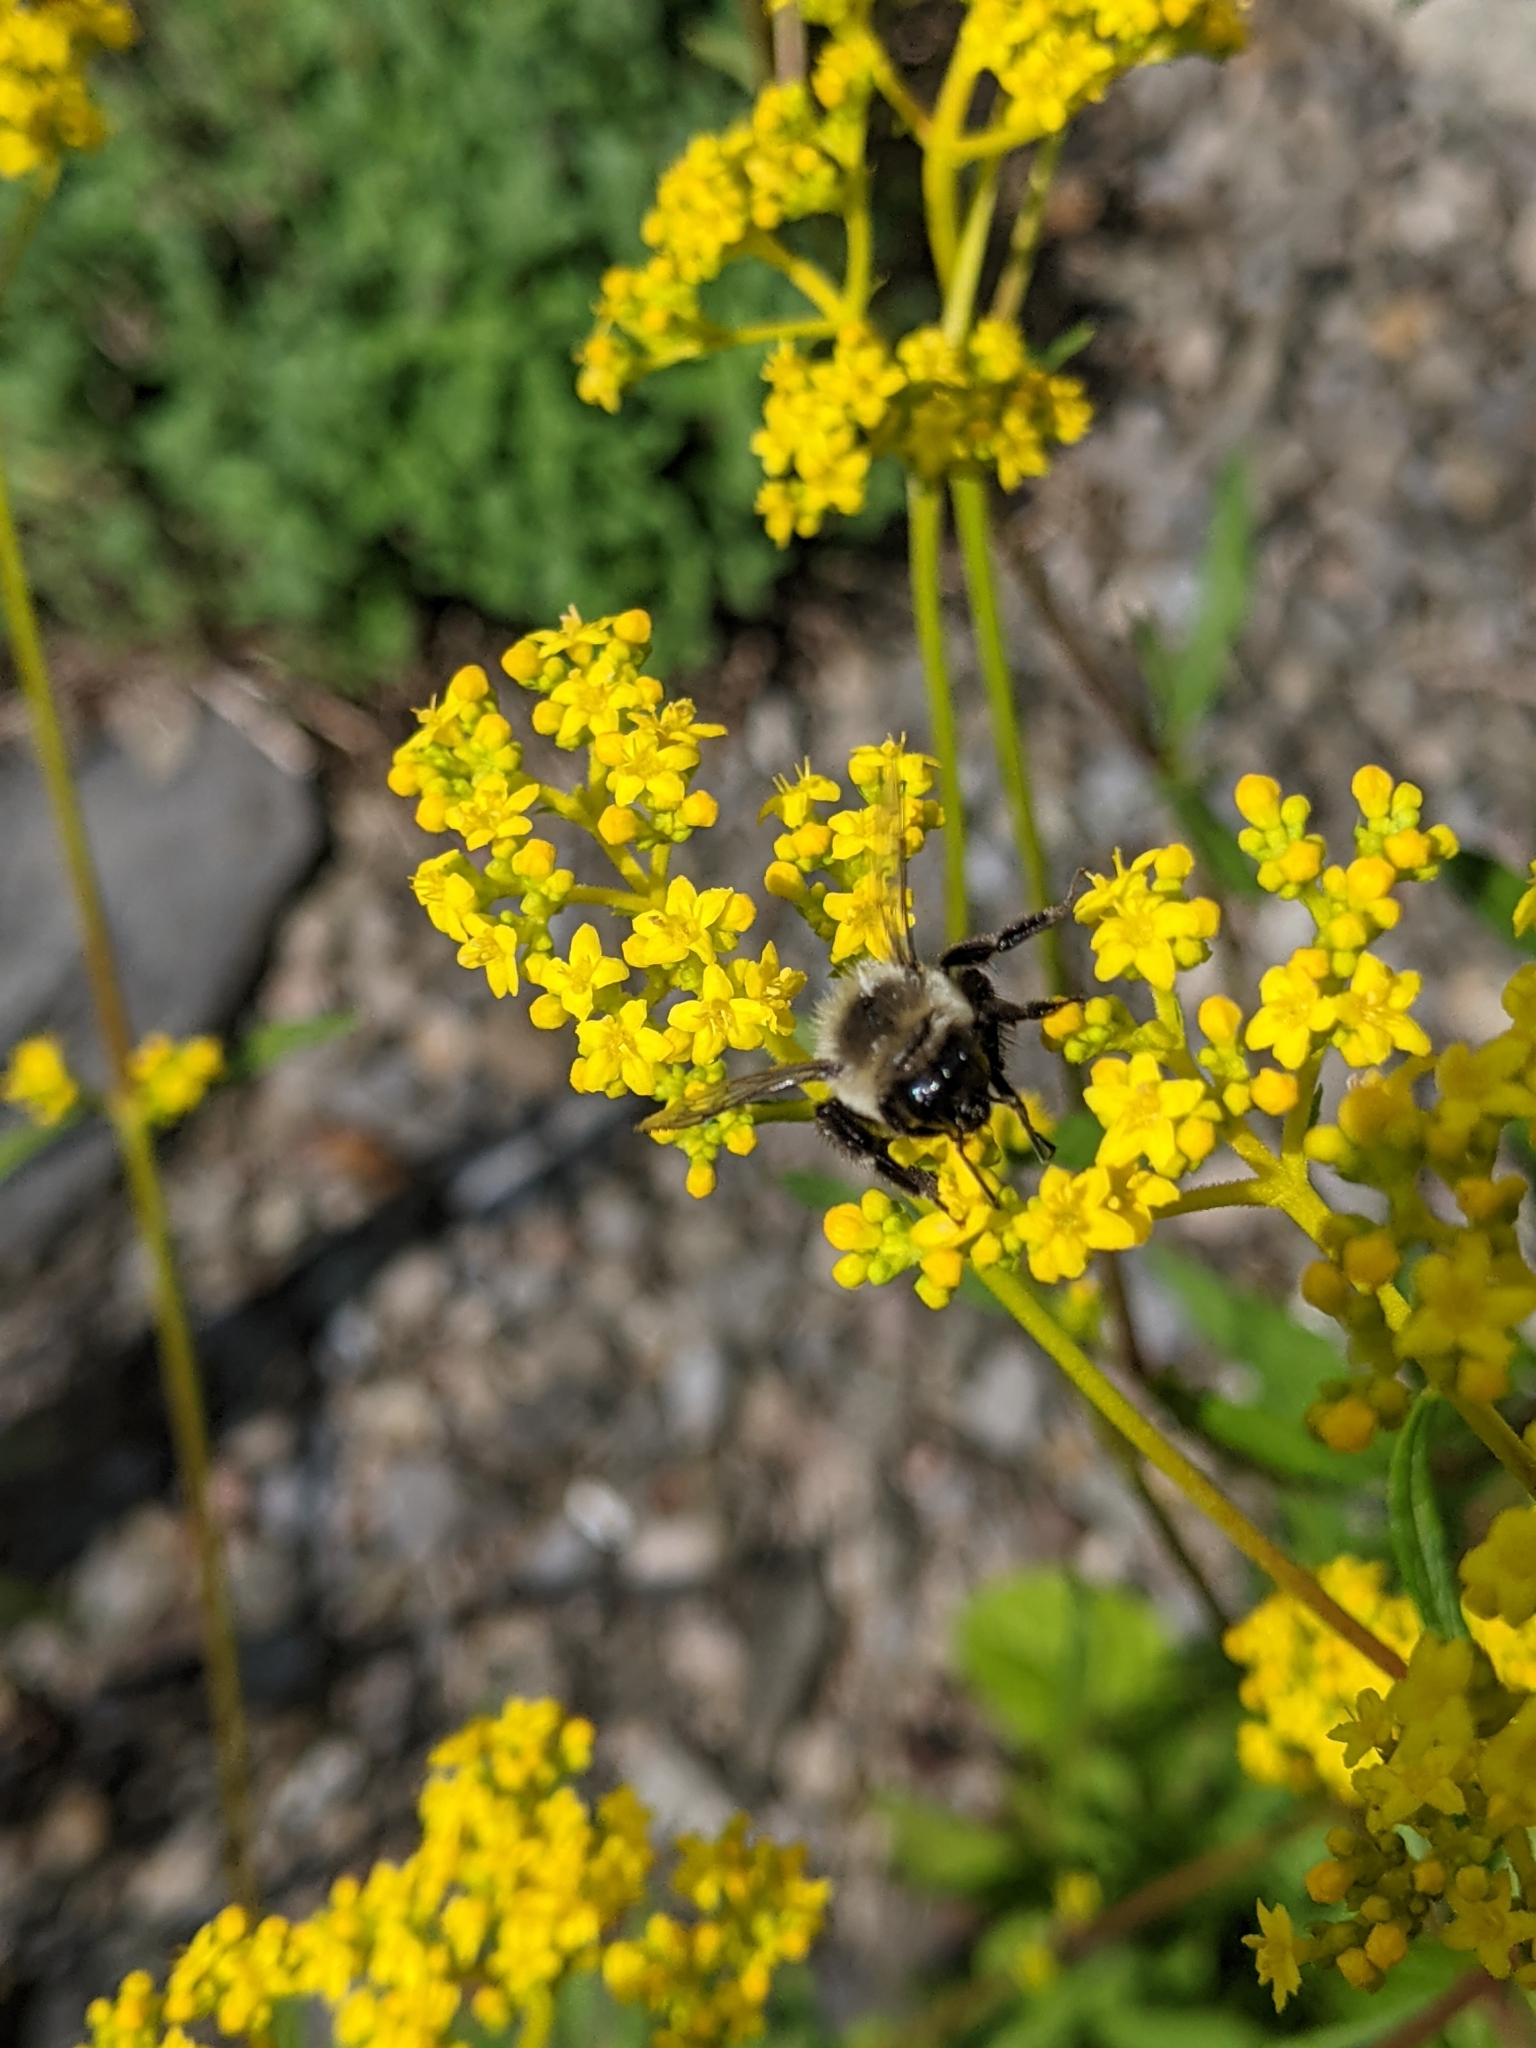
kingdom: Animalia
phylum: Arthropoda
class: Insecta
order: Hymenoptera
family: Apidae
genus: Bombus
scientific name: Bombus impatiens
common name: Common eastern bumble bee
